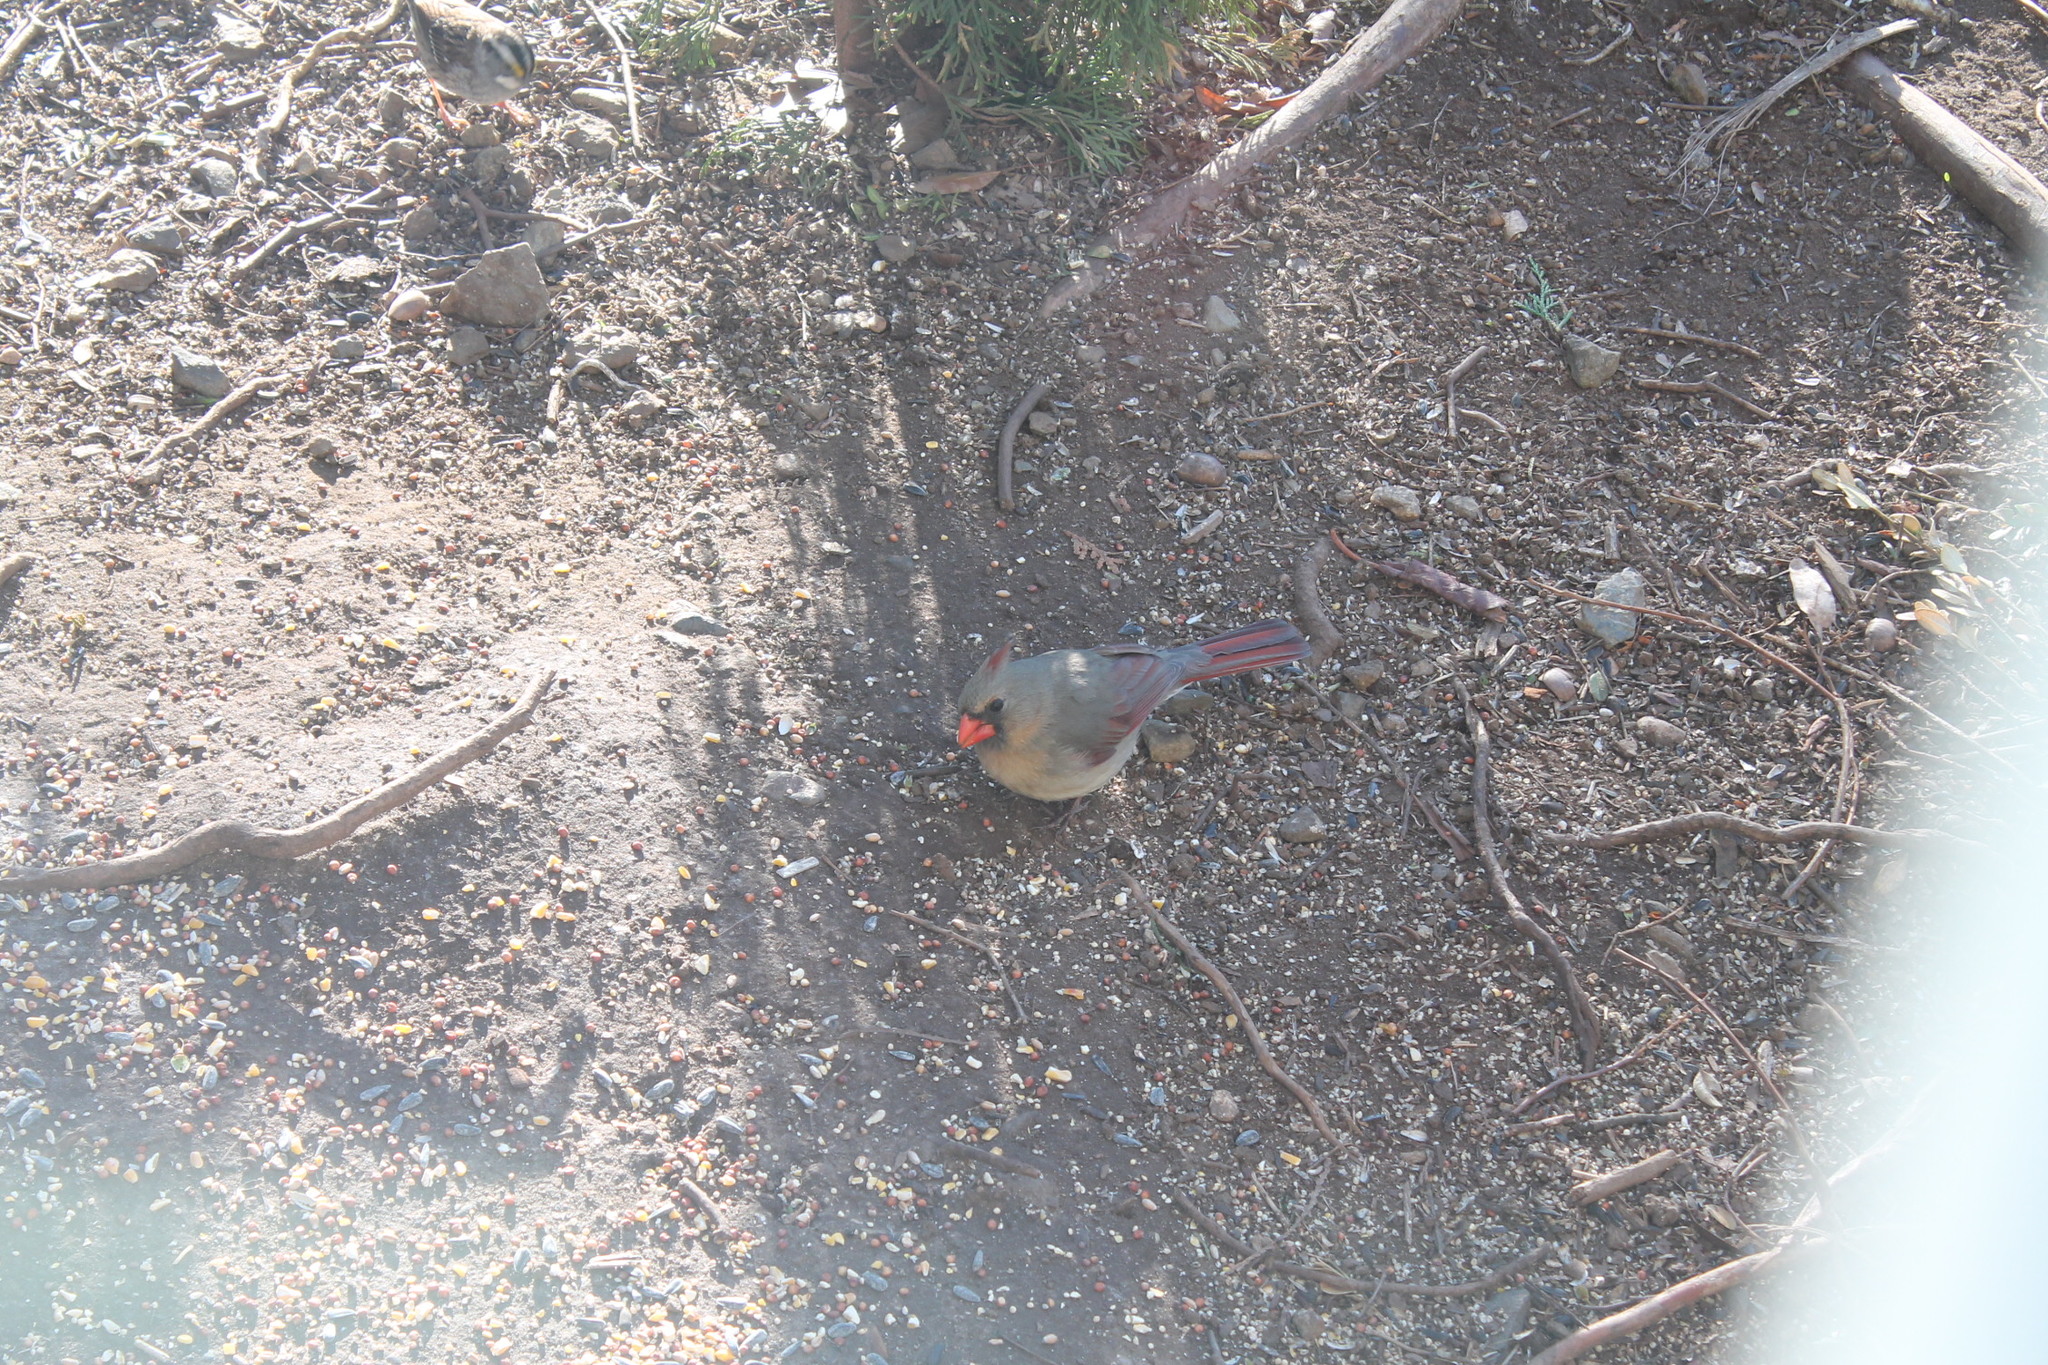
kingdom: Animalia
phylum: Chordata
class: Aves
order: Passeriformes
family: Cardinalidae
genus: Cardinalis
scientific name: Cardinalis cardinalis
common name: Northern cardinal
